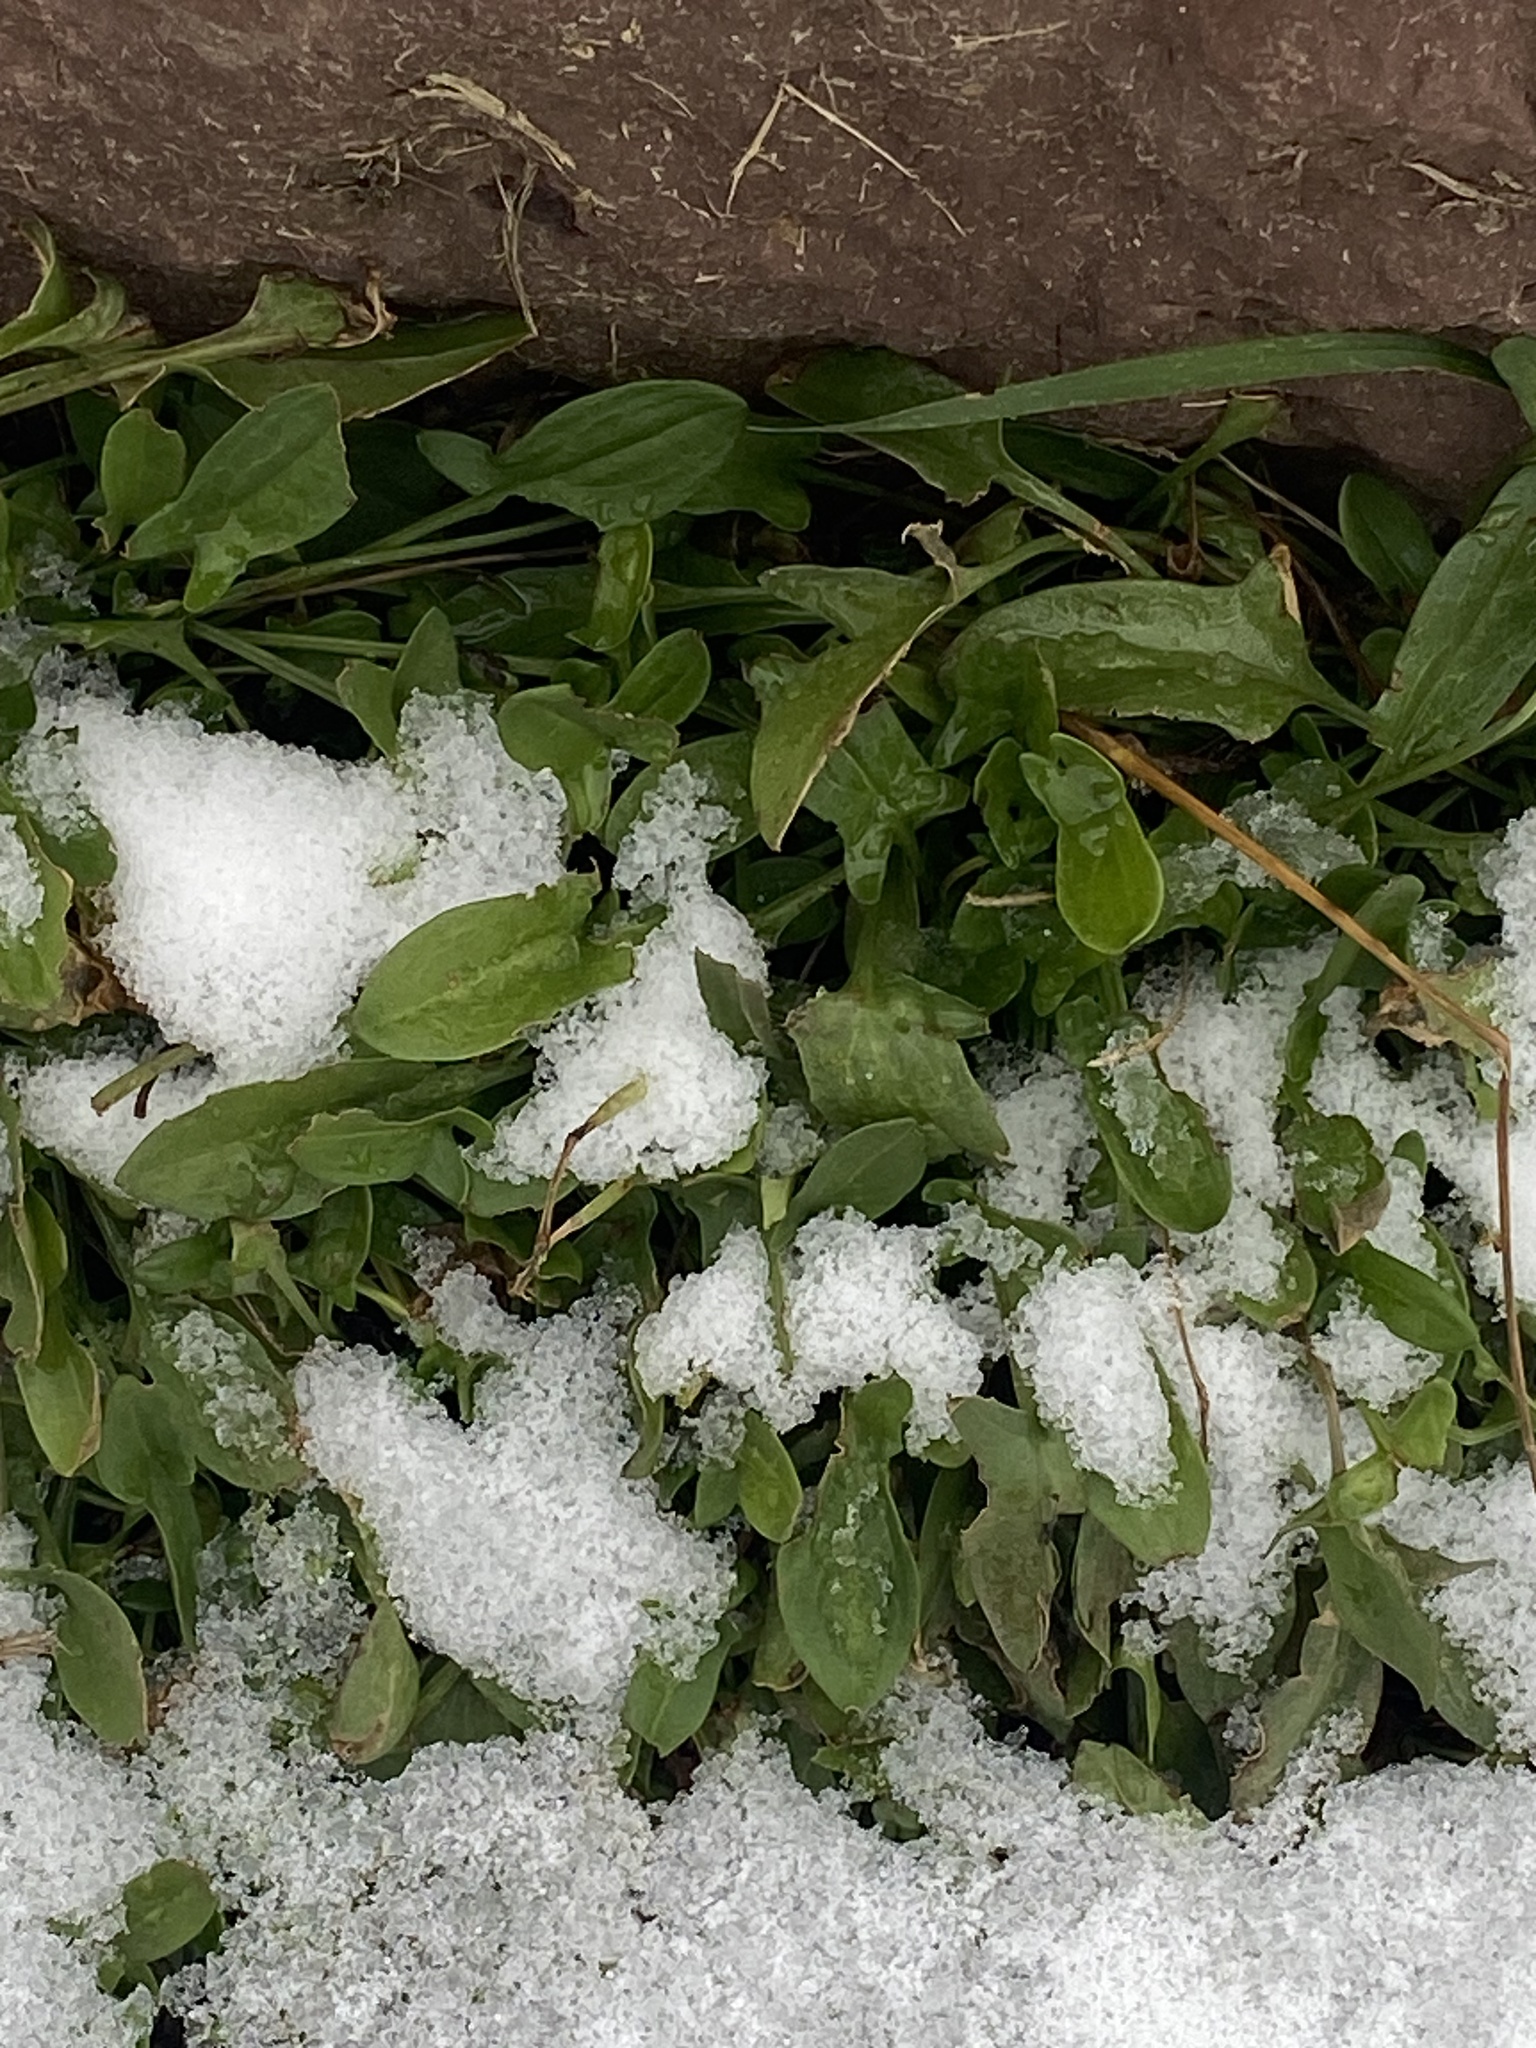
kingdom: Plantae
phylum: Tracheophyta
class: Magnoliopsida
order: Caryophyllales
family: Polygonaceae
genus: Rumex
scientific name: Rumex acetosella
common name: Common sheep sorrel
